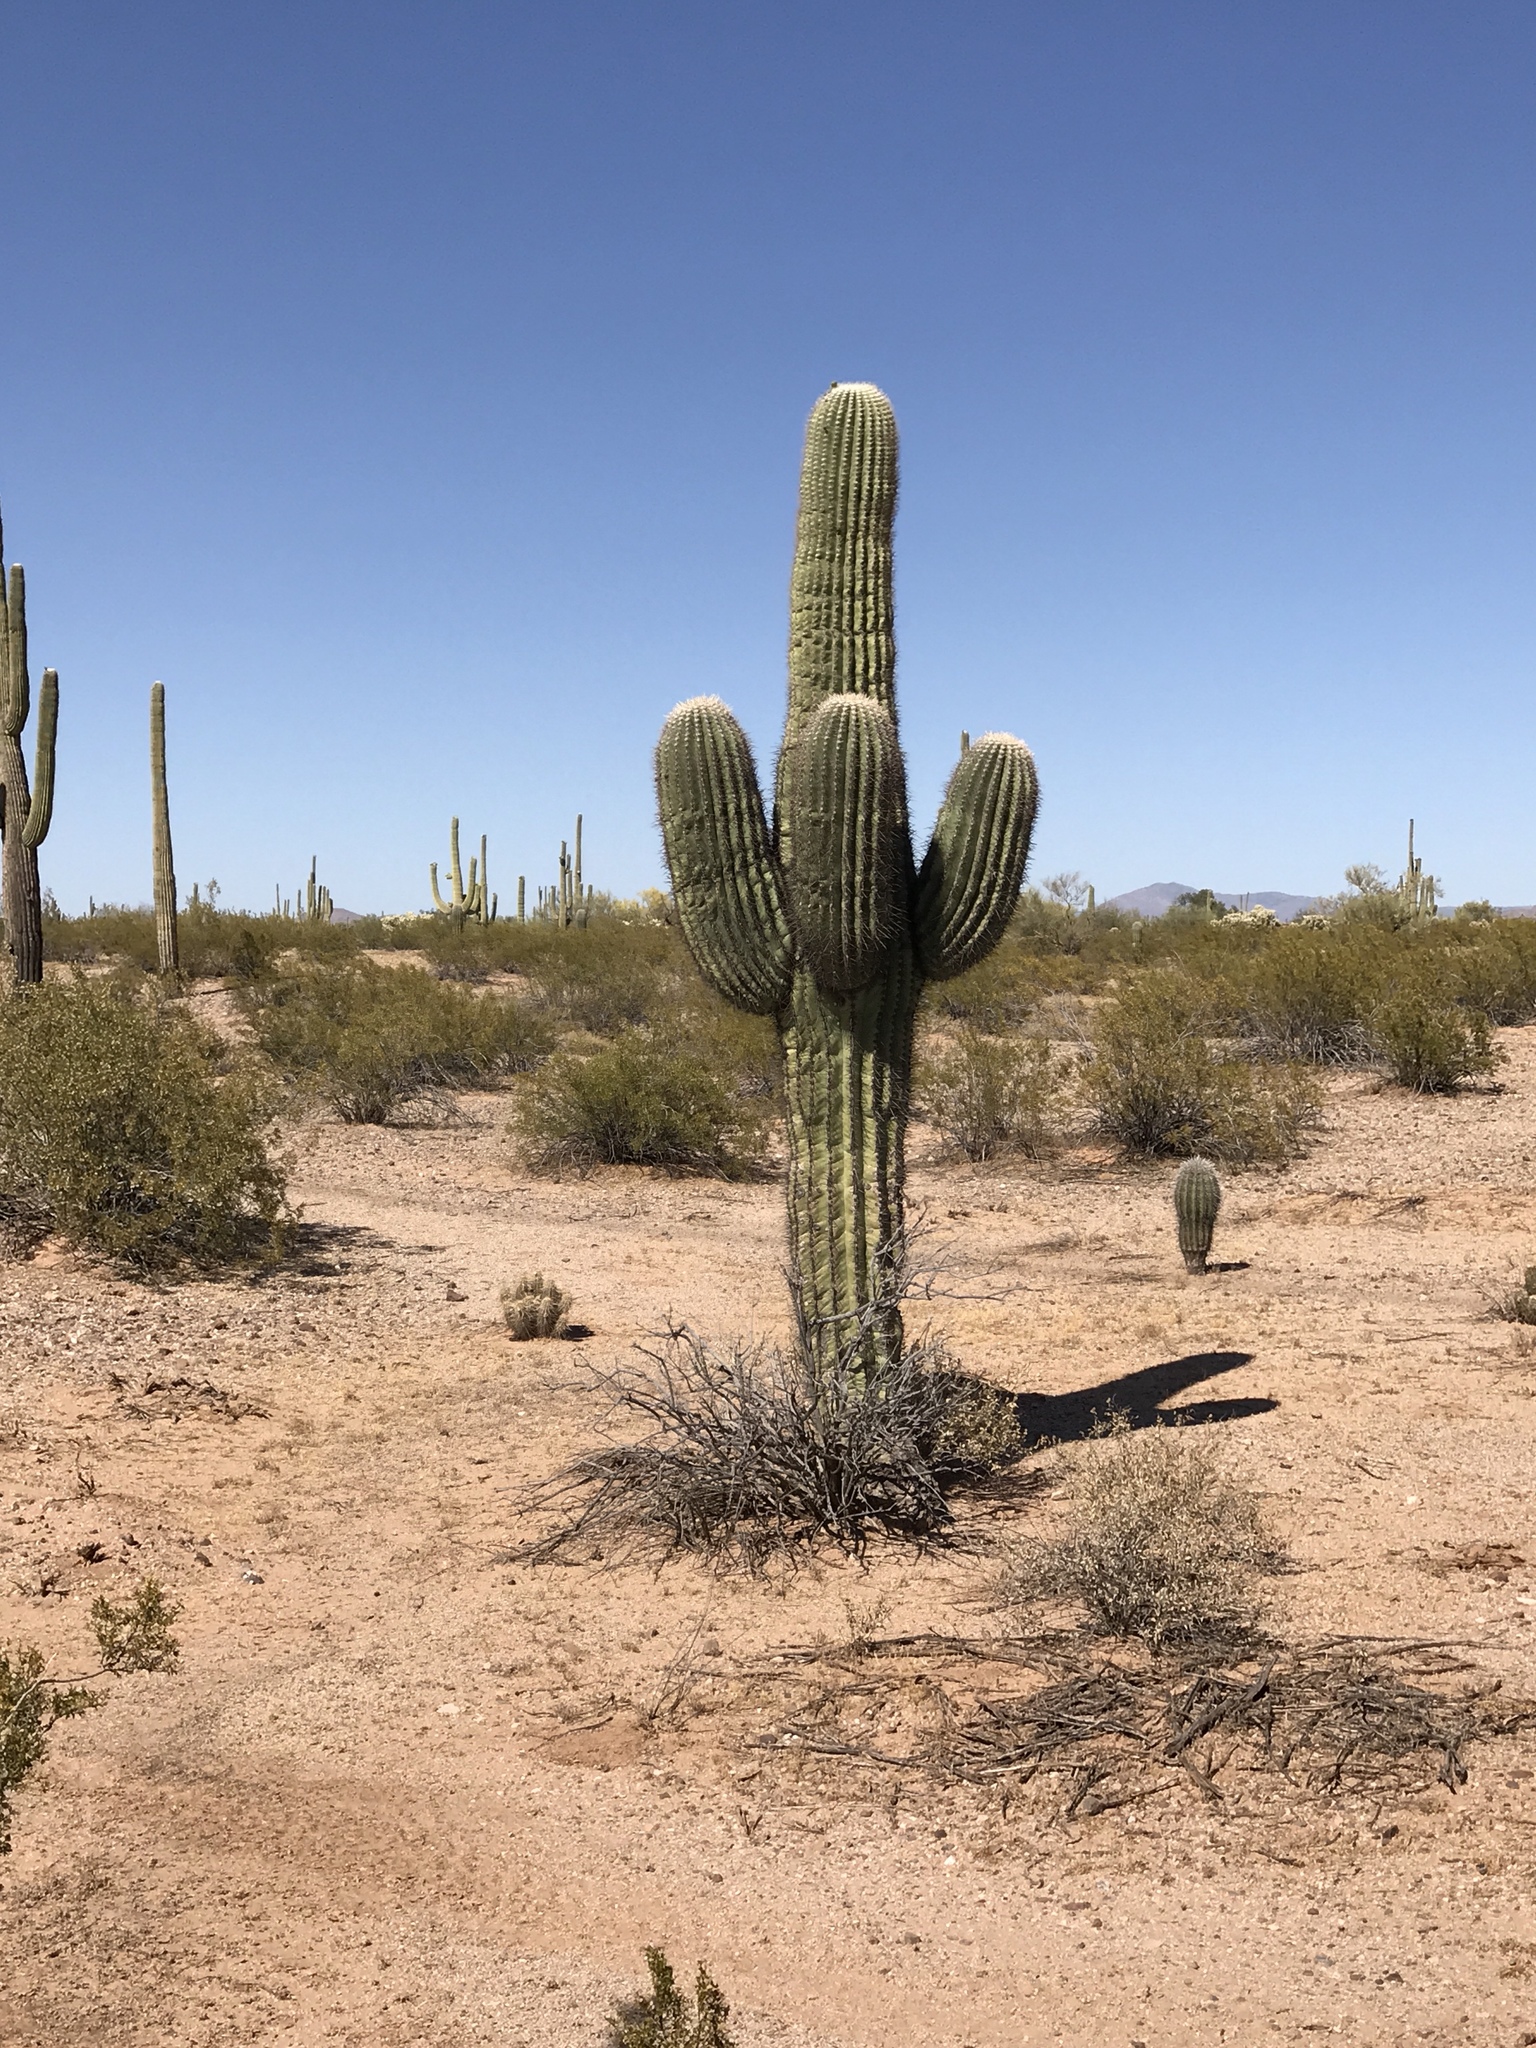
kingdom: Plantae
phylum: Tracheophyta
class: Magnoliopsida
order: Caryophyllales
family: Cactaceae
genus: Carnegiea
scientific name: Carnegiea gigantea
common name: Saguaro
